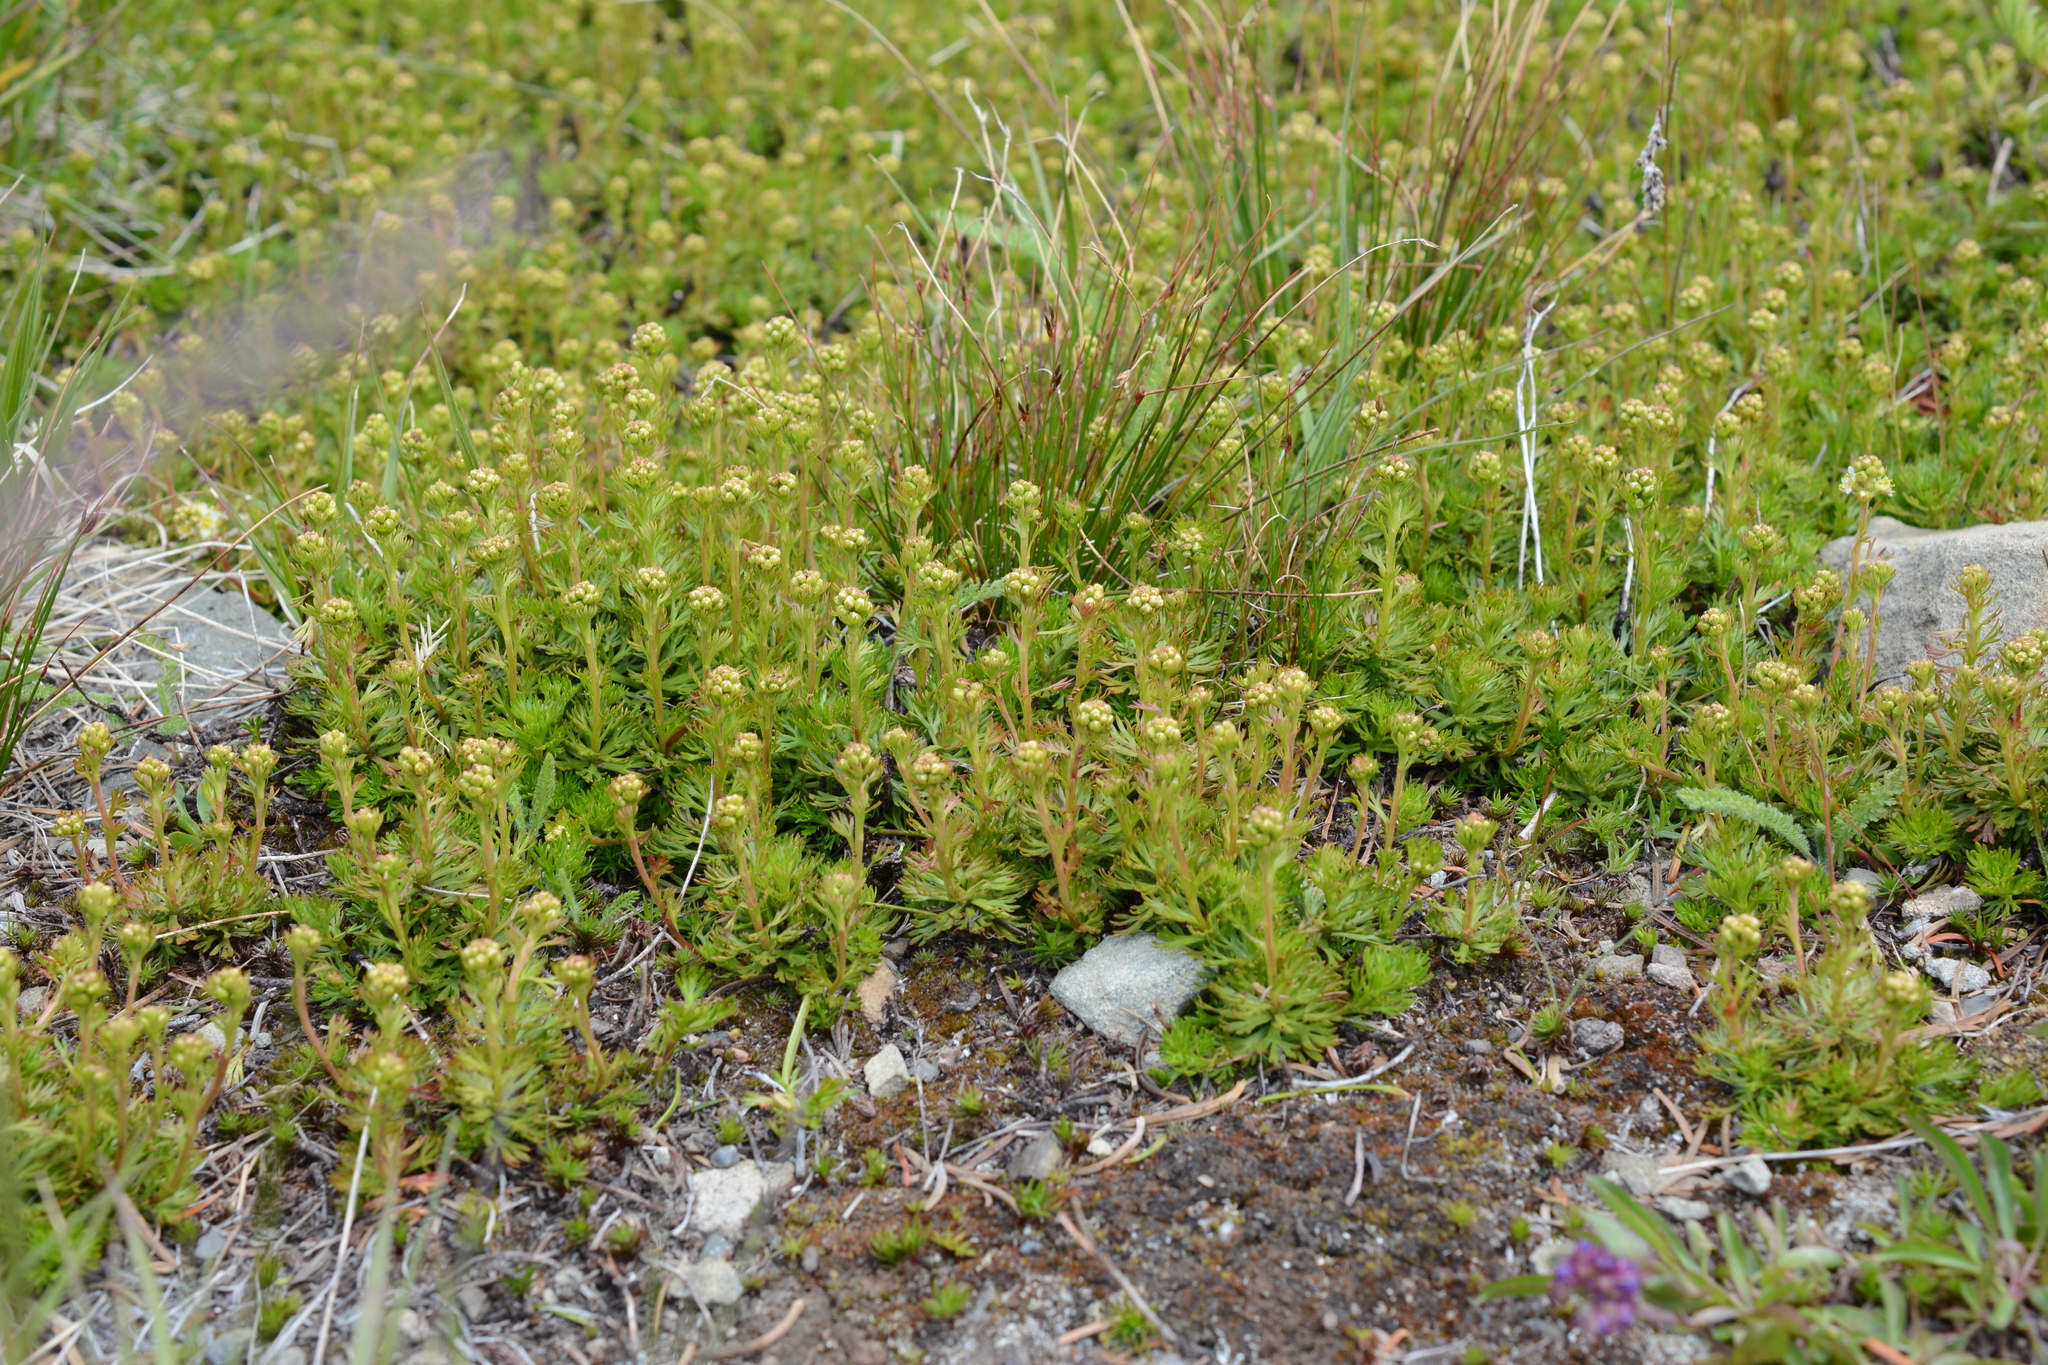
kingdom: Plantae
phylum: Tracheophyta
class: Magnoliopsida
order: Rosales
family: Rosaceae
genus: Luetkea
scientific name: Luetkea pectinata
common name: Partridgefoot
